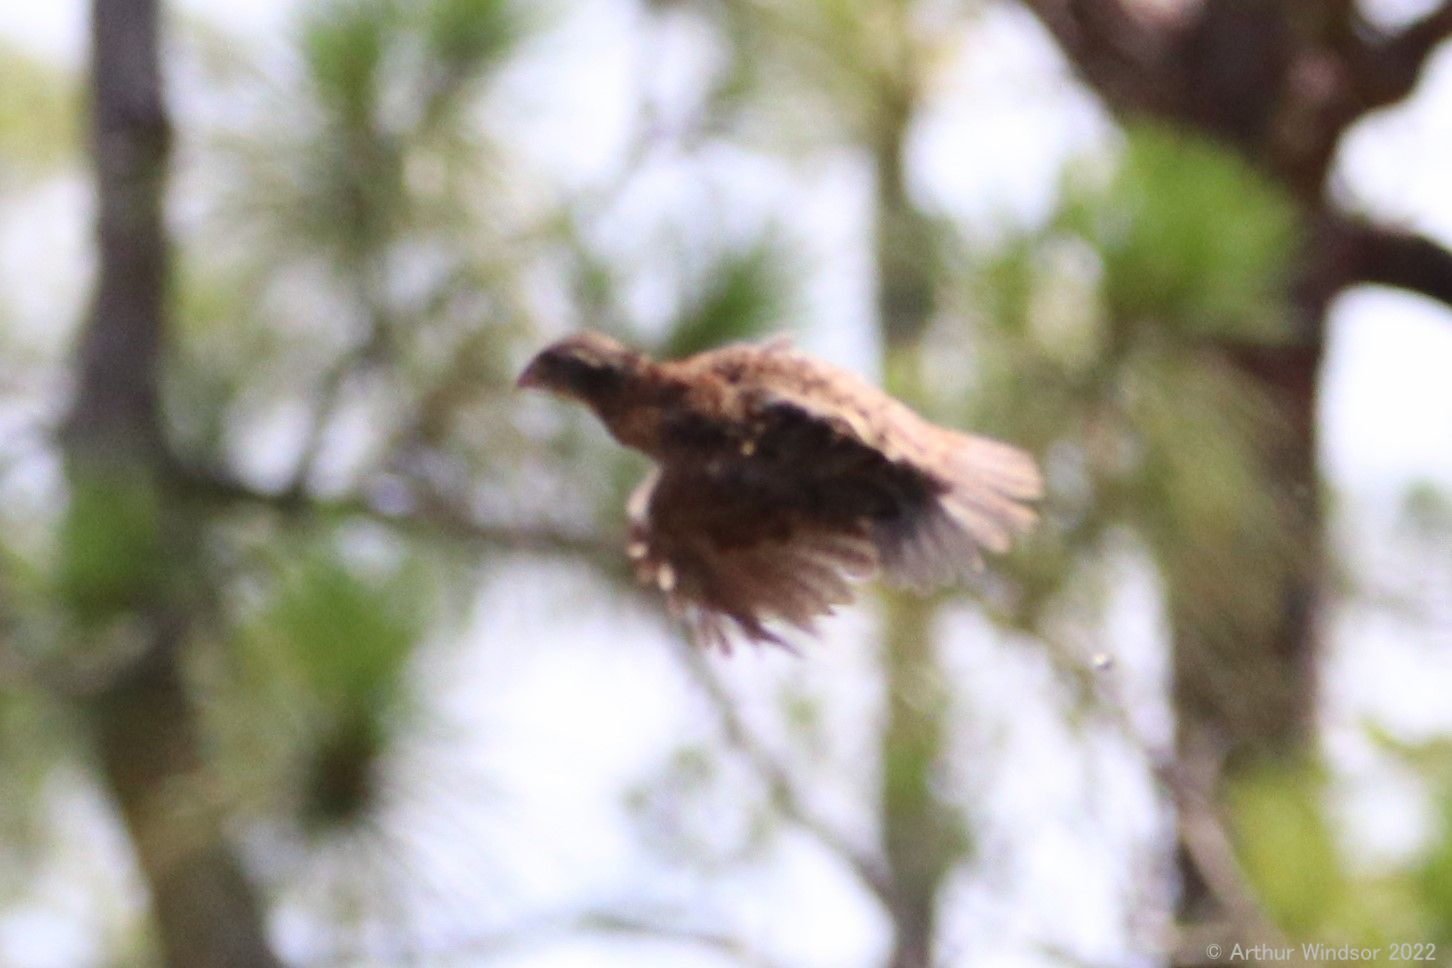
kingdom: Animalia
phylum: Chordata
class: Aves
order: Galliformes
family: Odontophoridae
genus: Colinus
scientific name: Colinus virginianus
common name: Northern bobwhite
